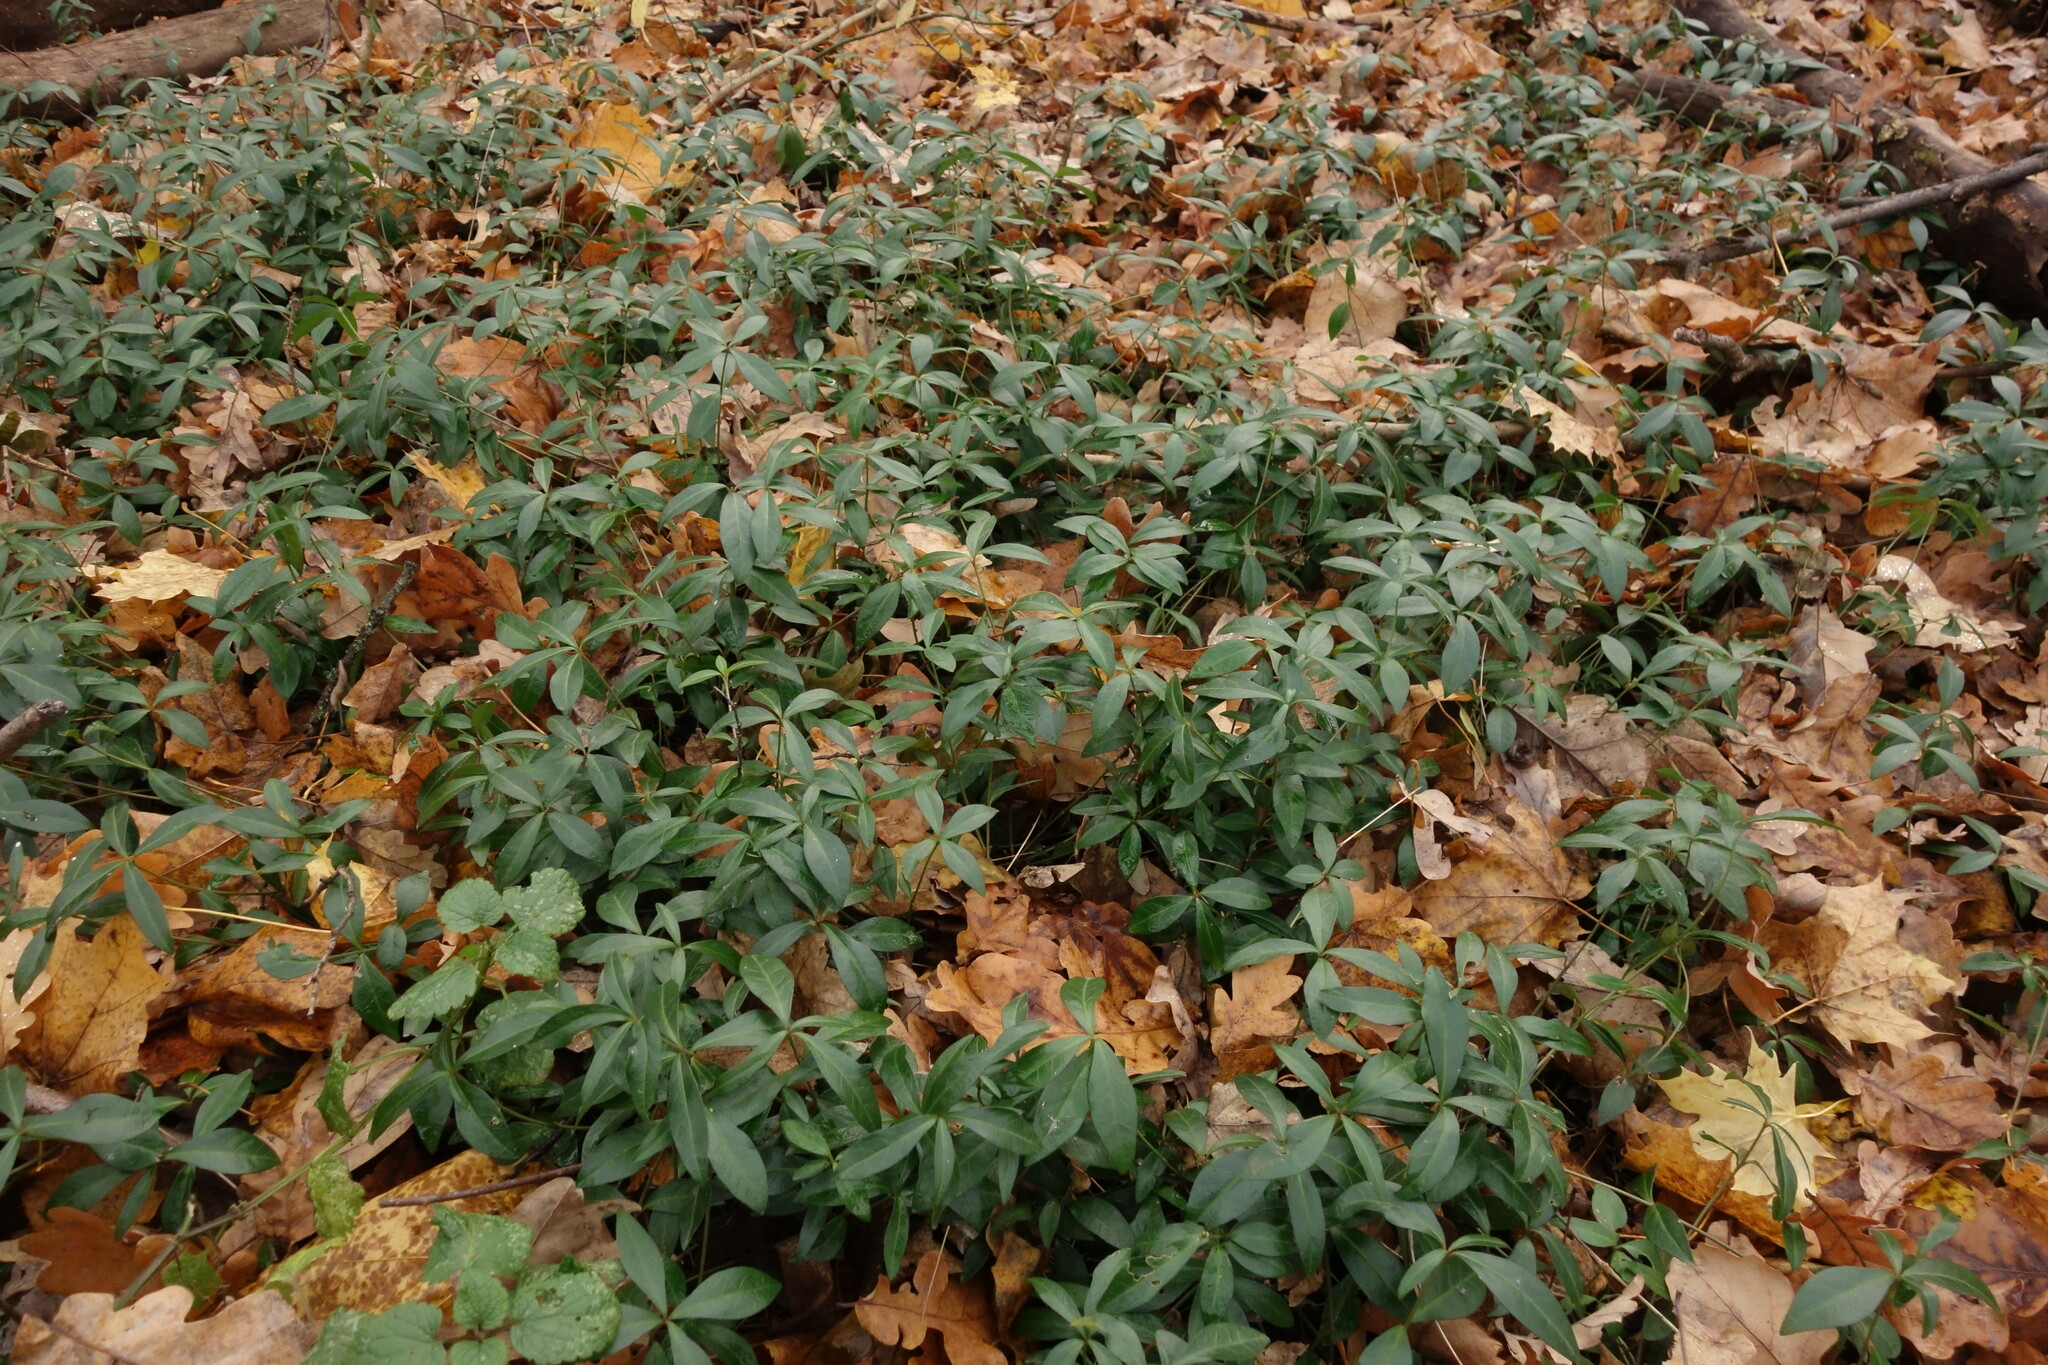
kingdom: Plantae
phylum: Tracheophyta
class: Magnoliopsida
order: Gentianales
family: Apocynaceae
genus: Vinca
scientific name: Vinca minor
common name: Lesser periwinkle
